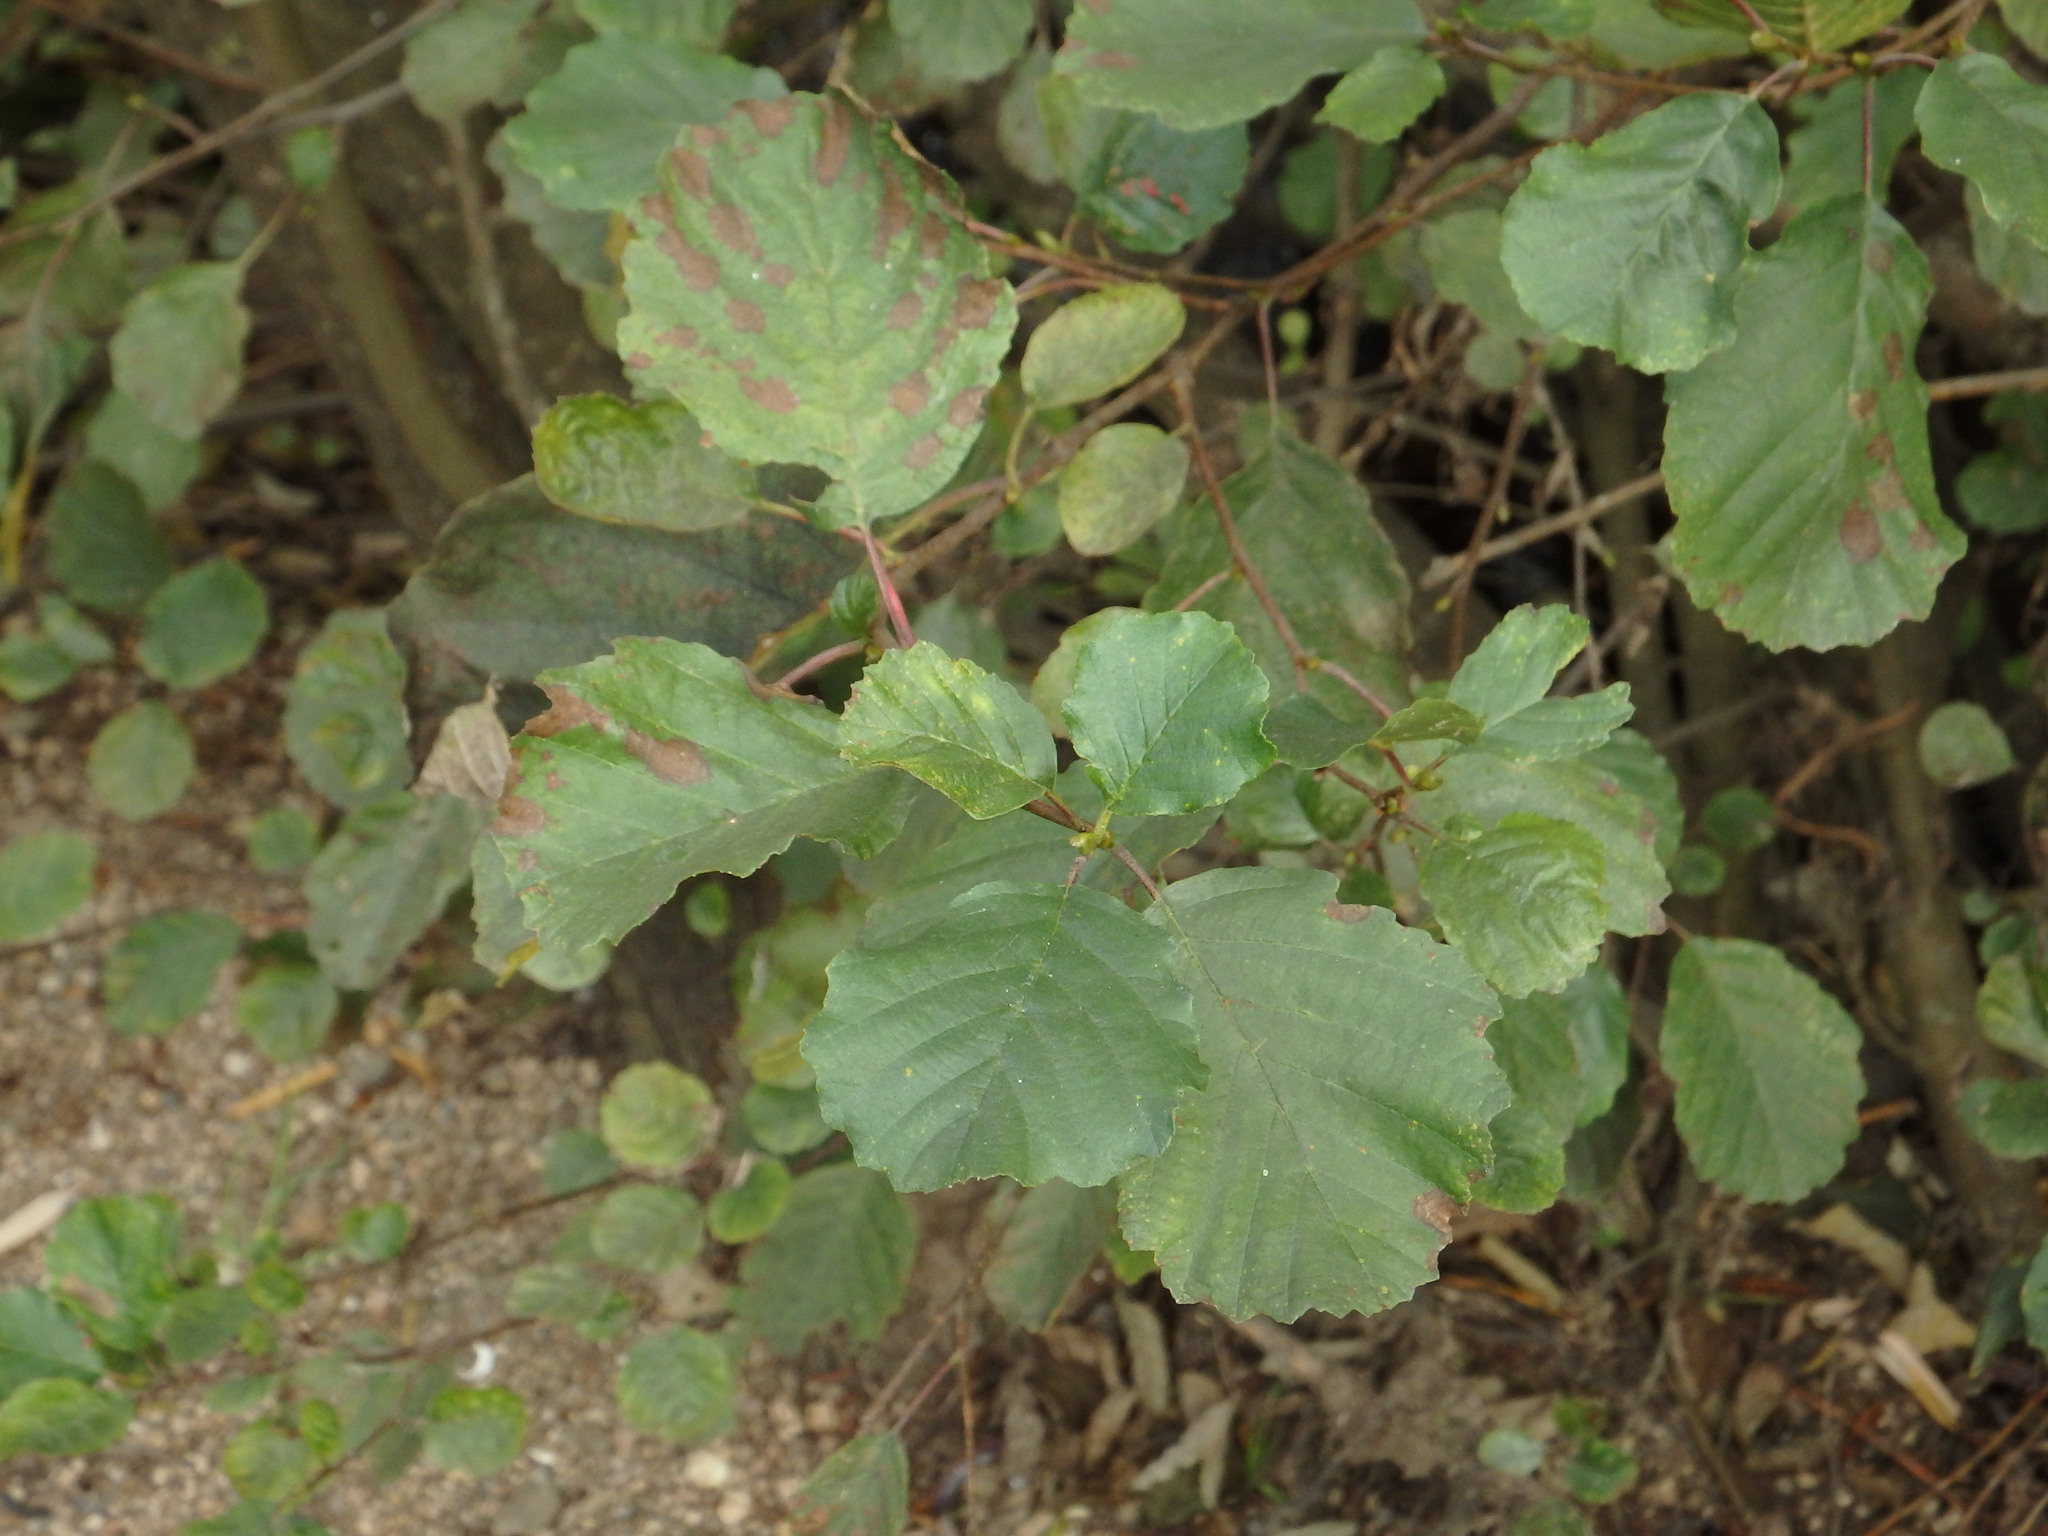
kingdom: Plantae
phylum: Tracheophyta
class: Magnoliopsida
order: Fagales
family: Betulaceae
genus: Alnus
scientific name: Alnus lusitanica
